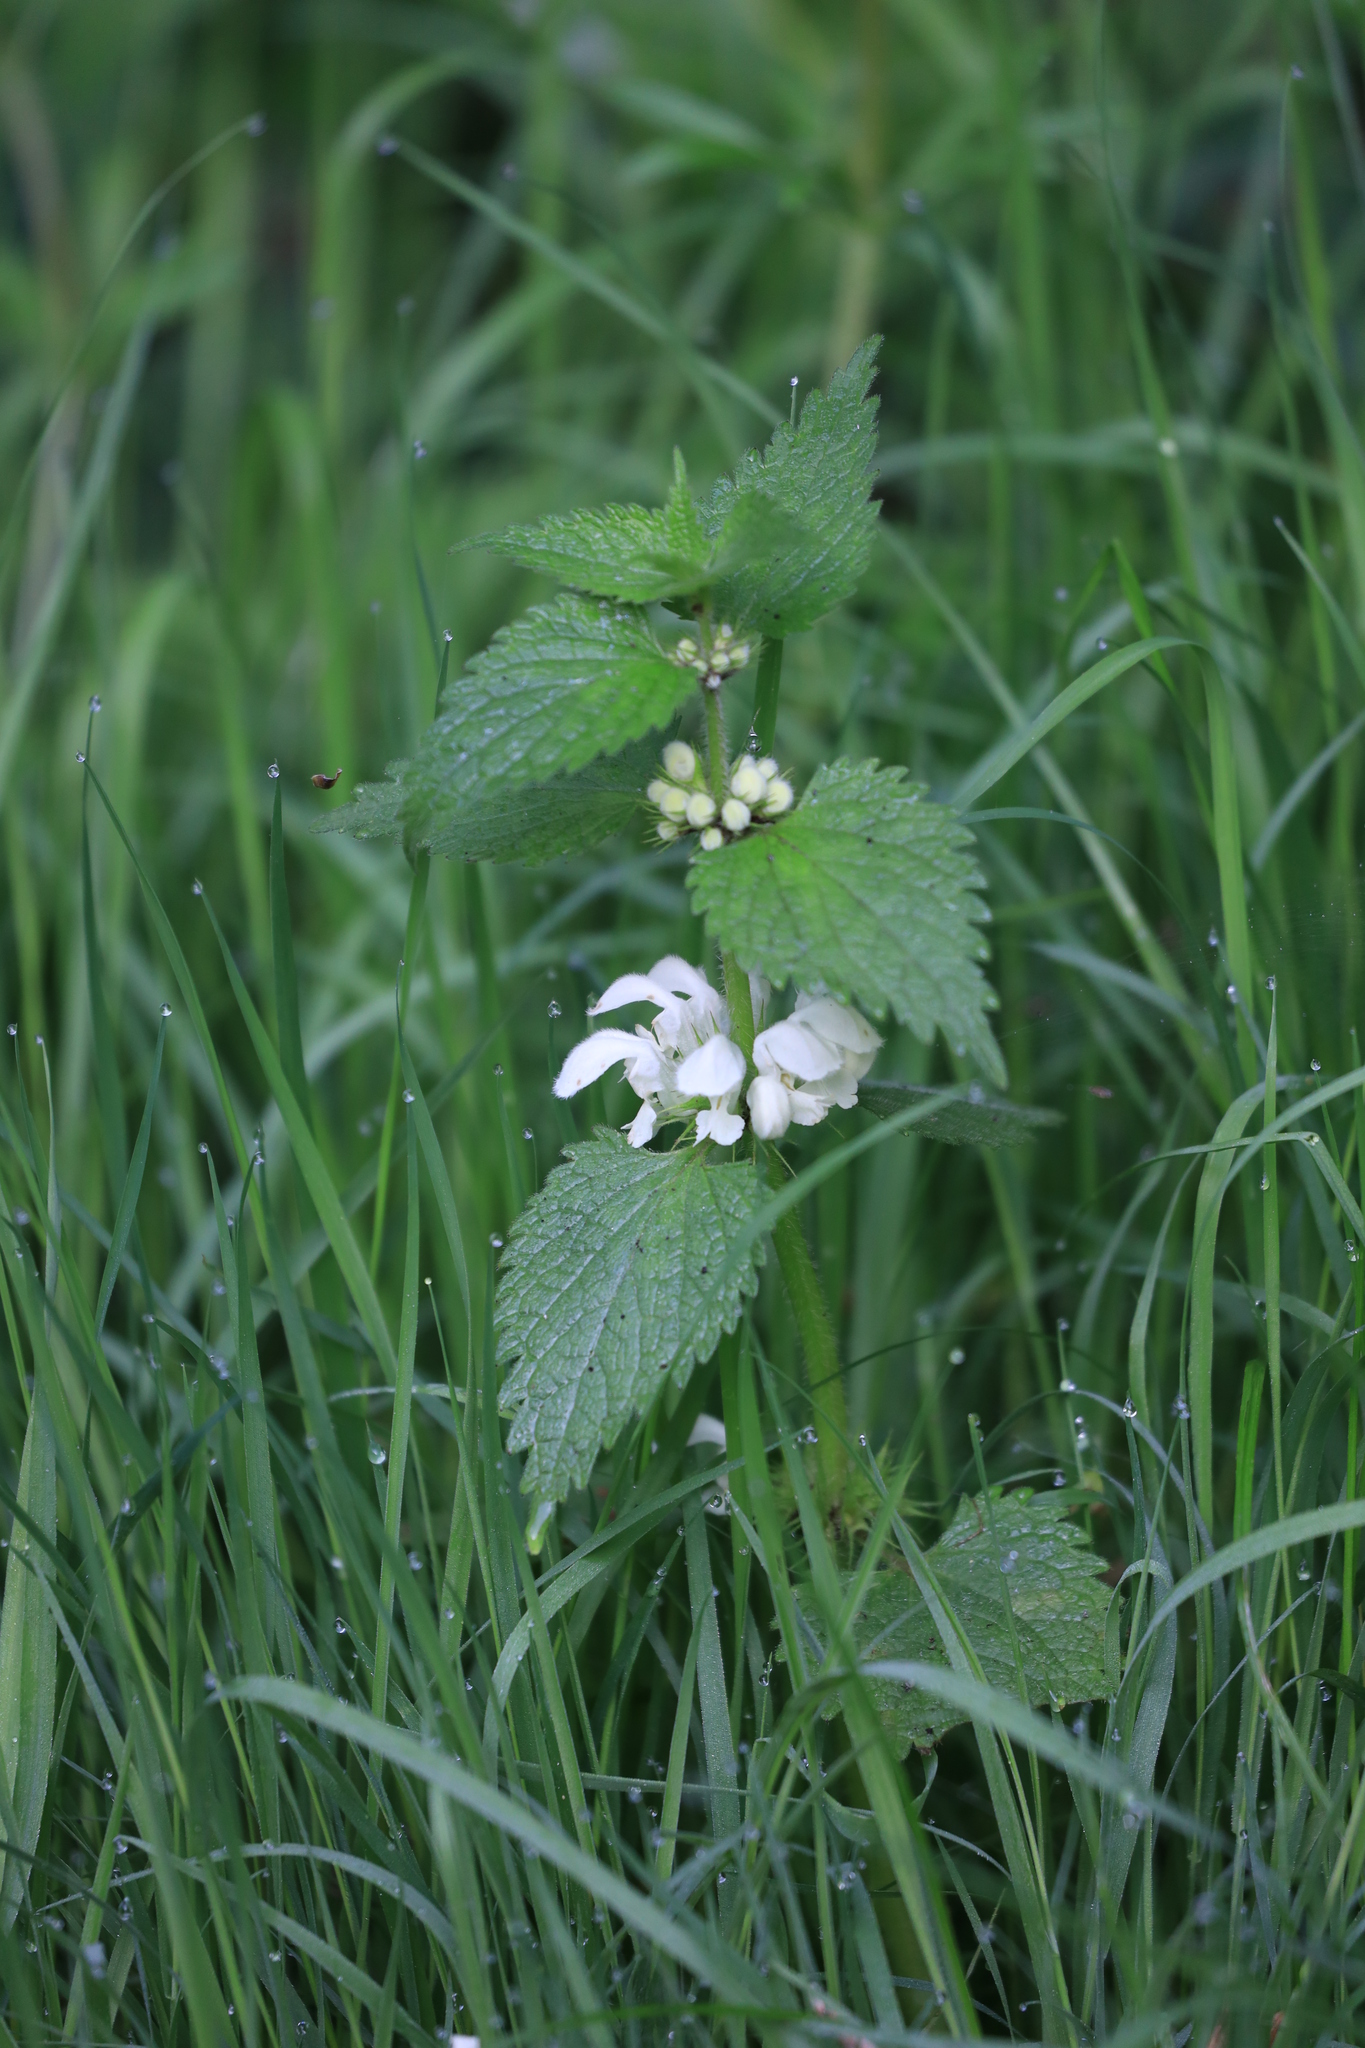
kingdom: Plantae
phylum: Tracheophyta
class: Magnoliopsida
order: Lamiales
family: Lamiaceae
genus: Lamium
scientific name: Lamium album
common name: White dead-nettle
